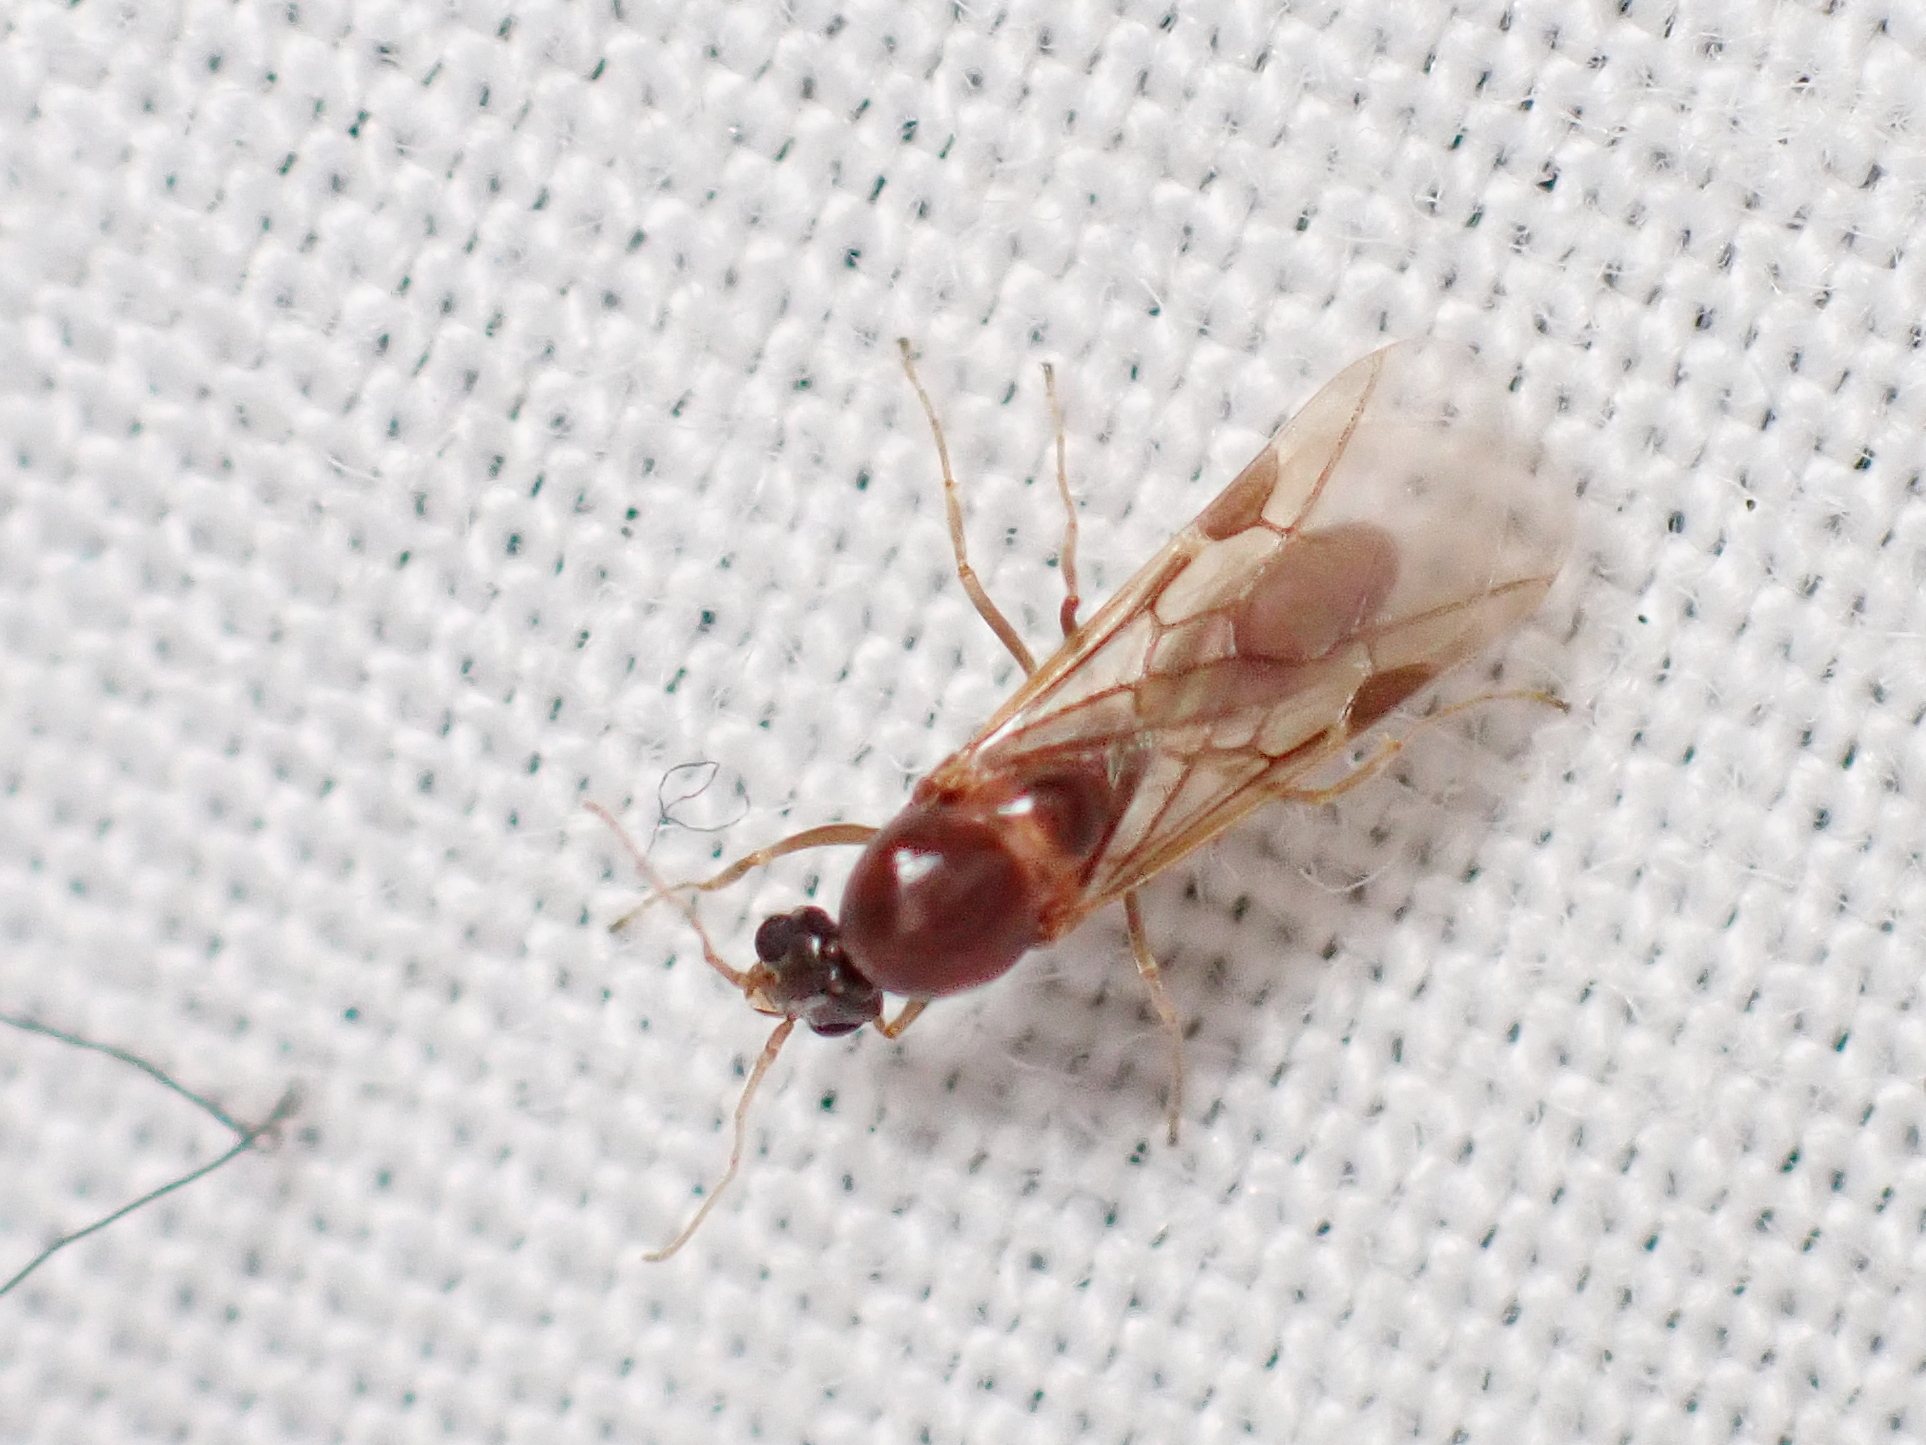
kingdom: Animalia
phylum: Arthropoda
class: Insecta
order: Hymenoptera
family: Formicidae
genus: Linepithema
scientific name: Linepithema humile
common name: Argentine ant
